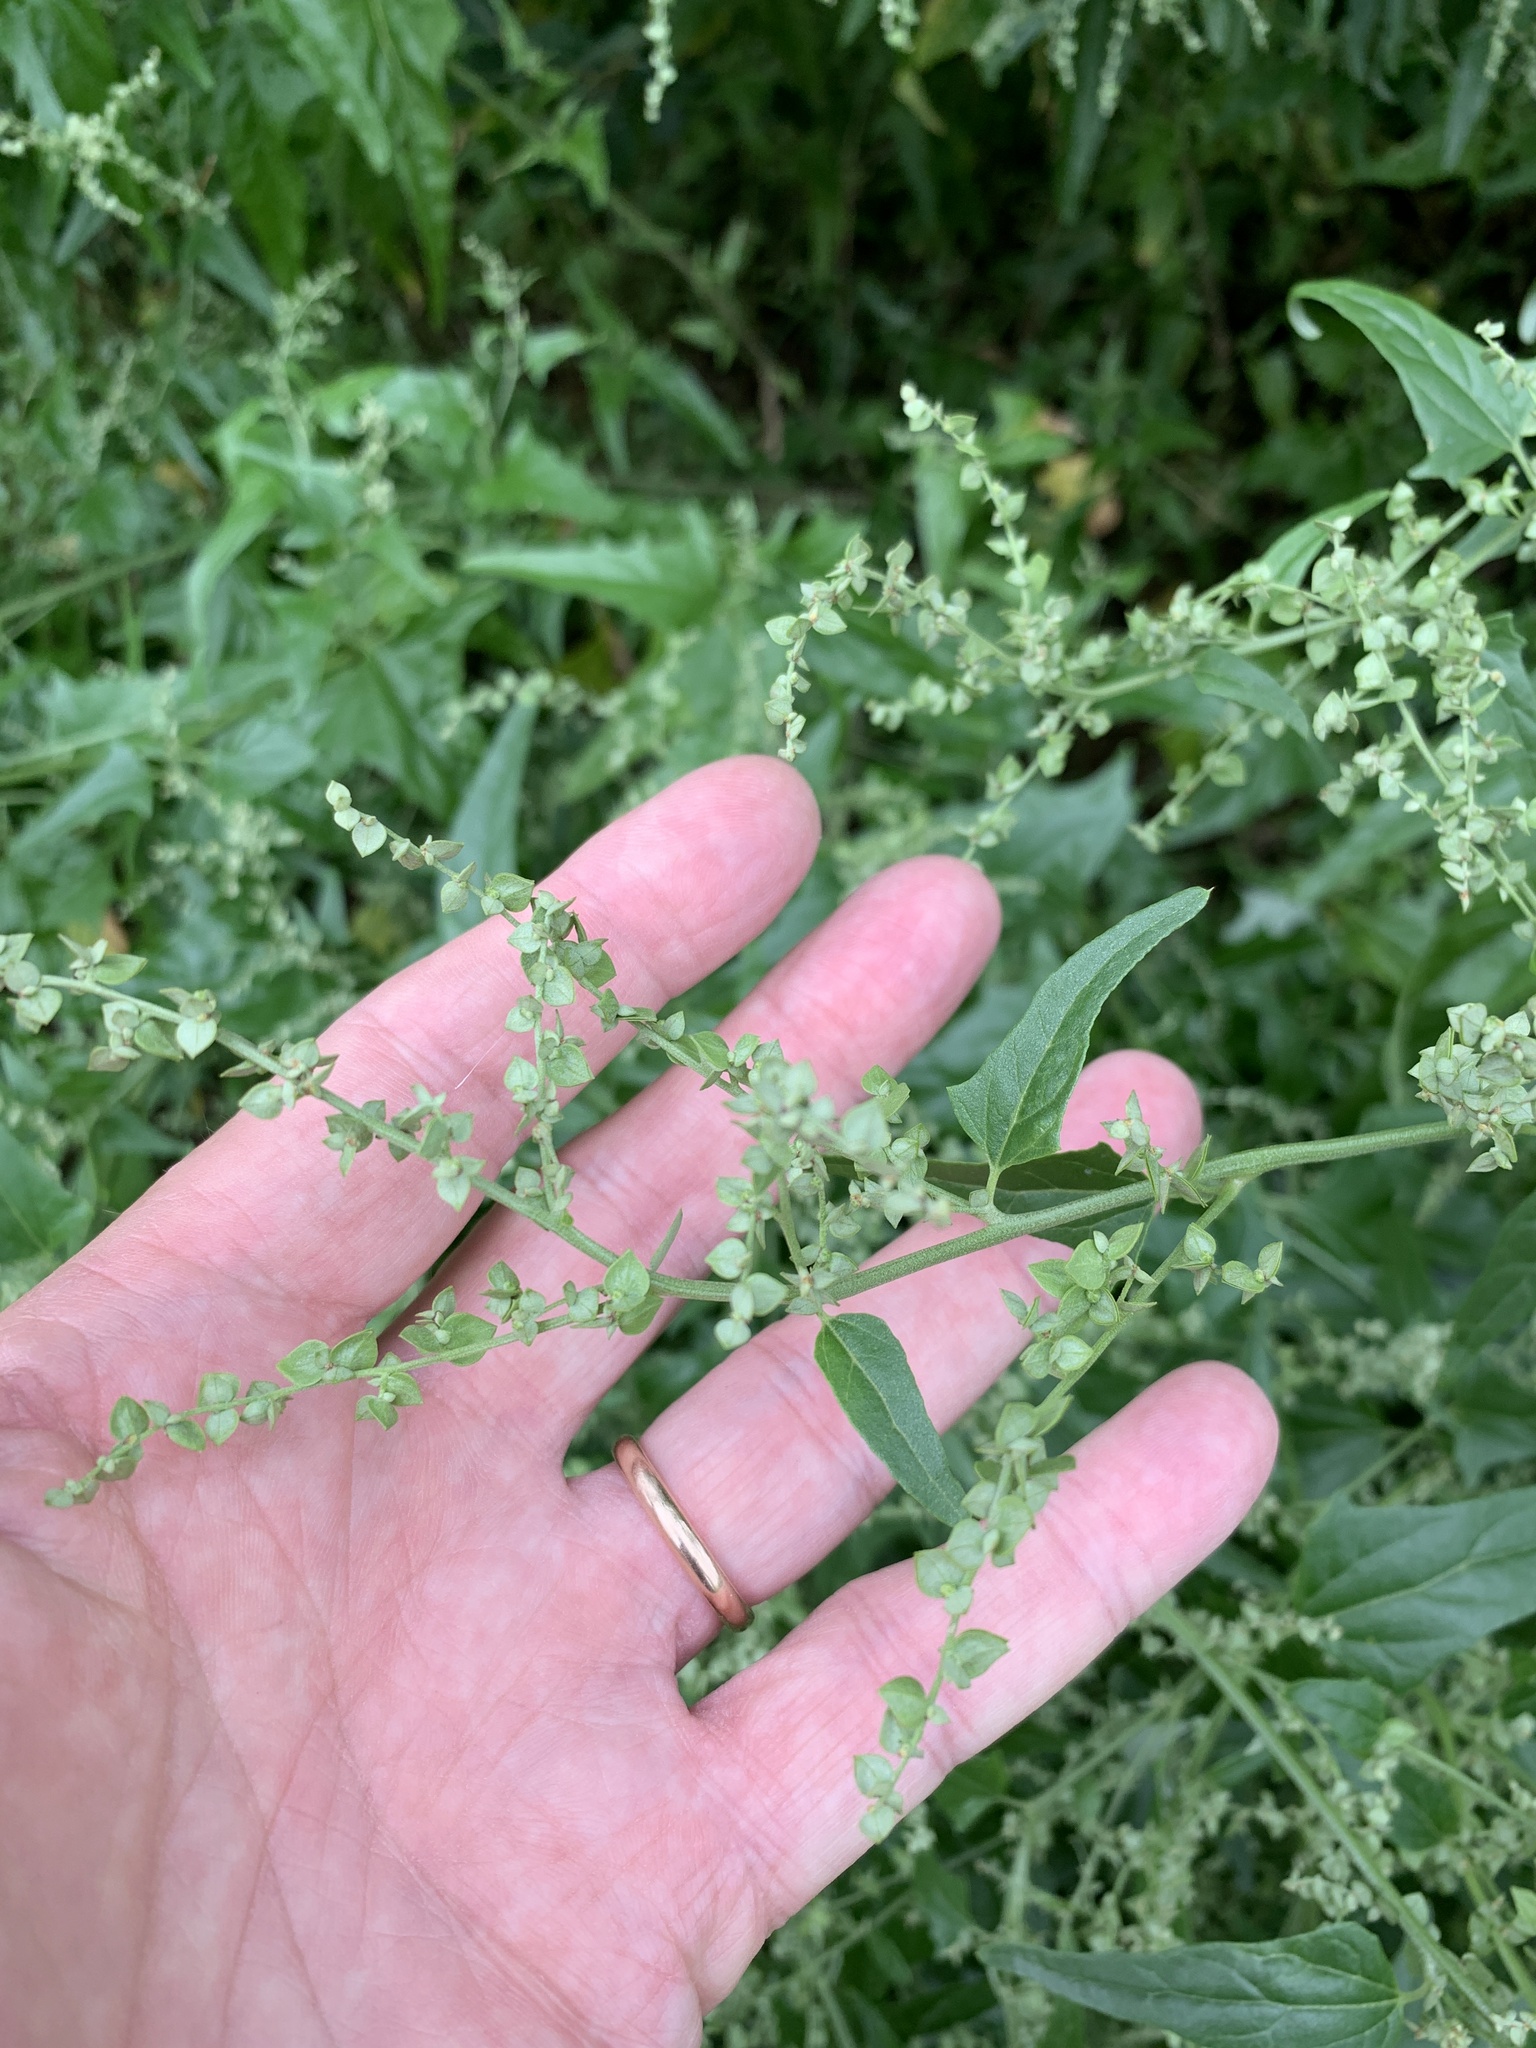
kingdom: Plantae
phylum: Tracheophyta
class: Magnoliopsida
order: Caryophyllales
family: Amaranthaceae
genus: Atriplex
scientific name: Atriplex sagittata
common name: Purple orache
